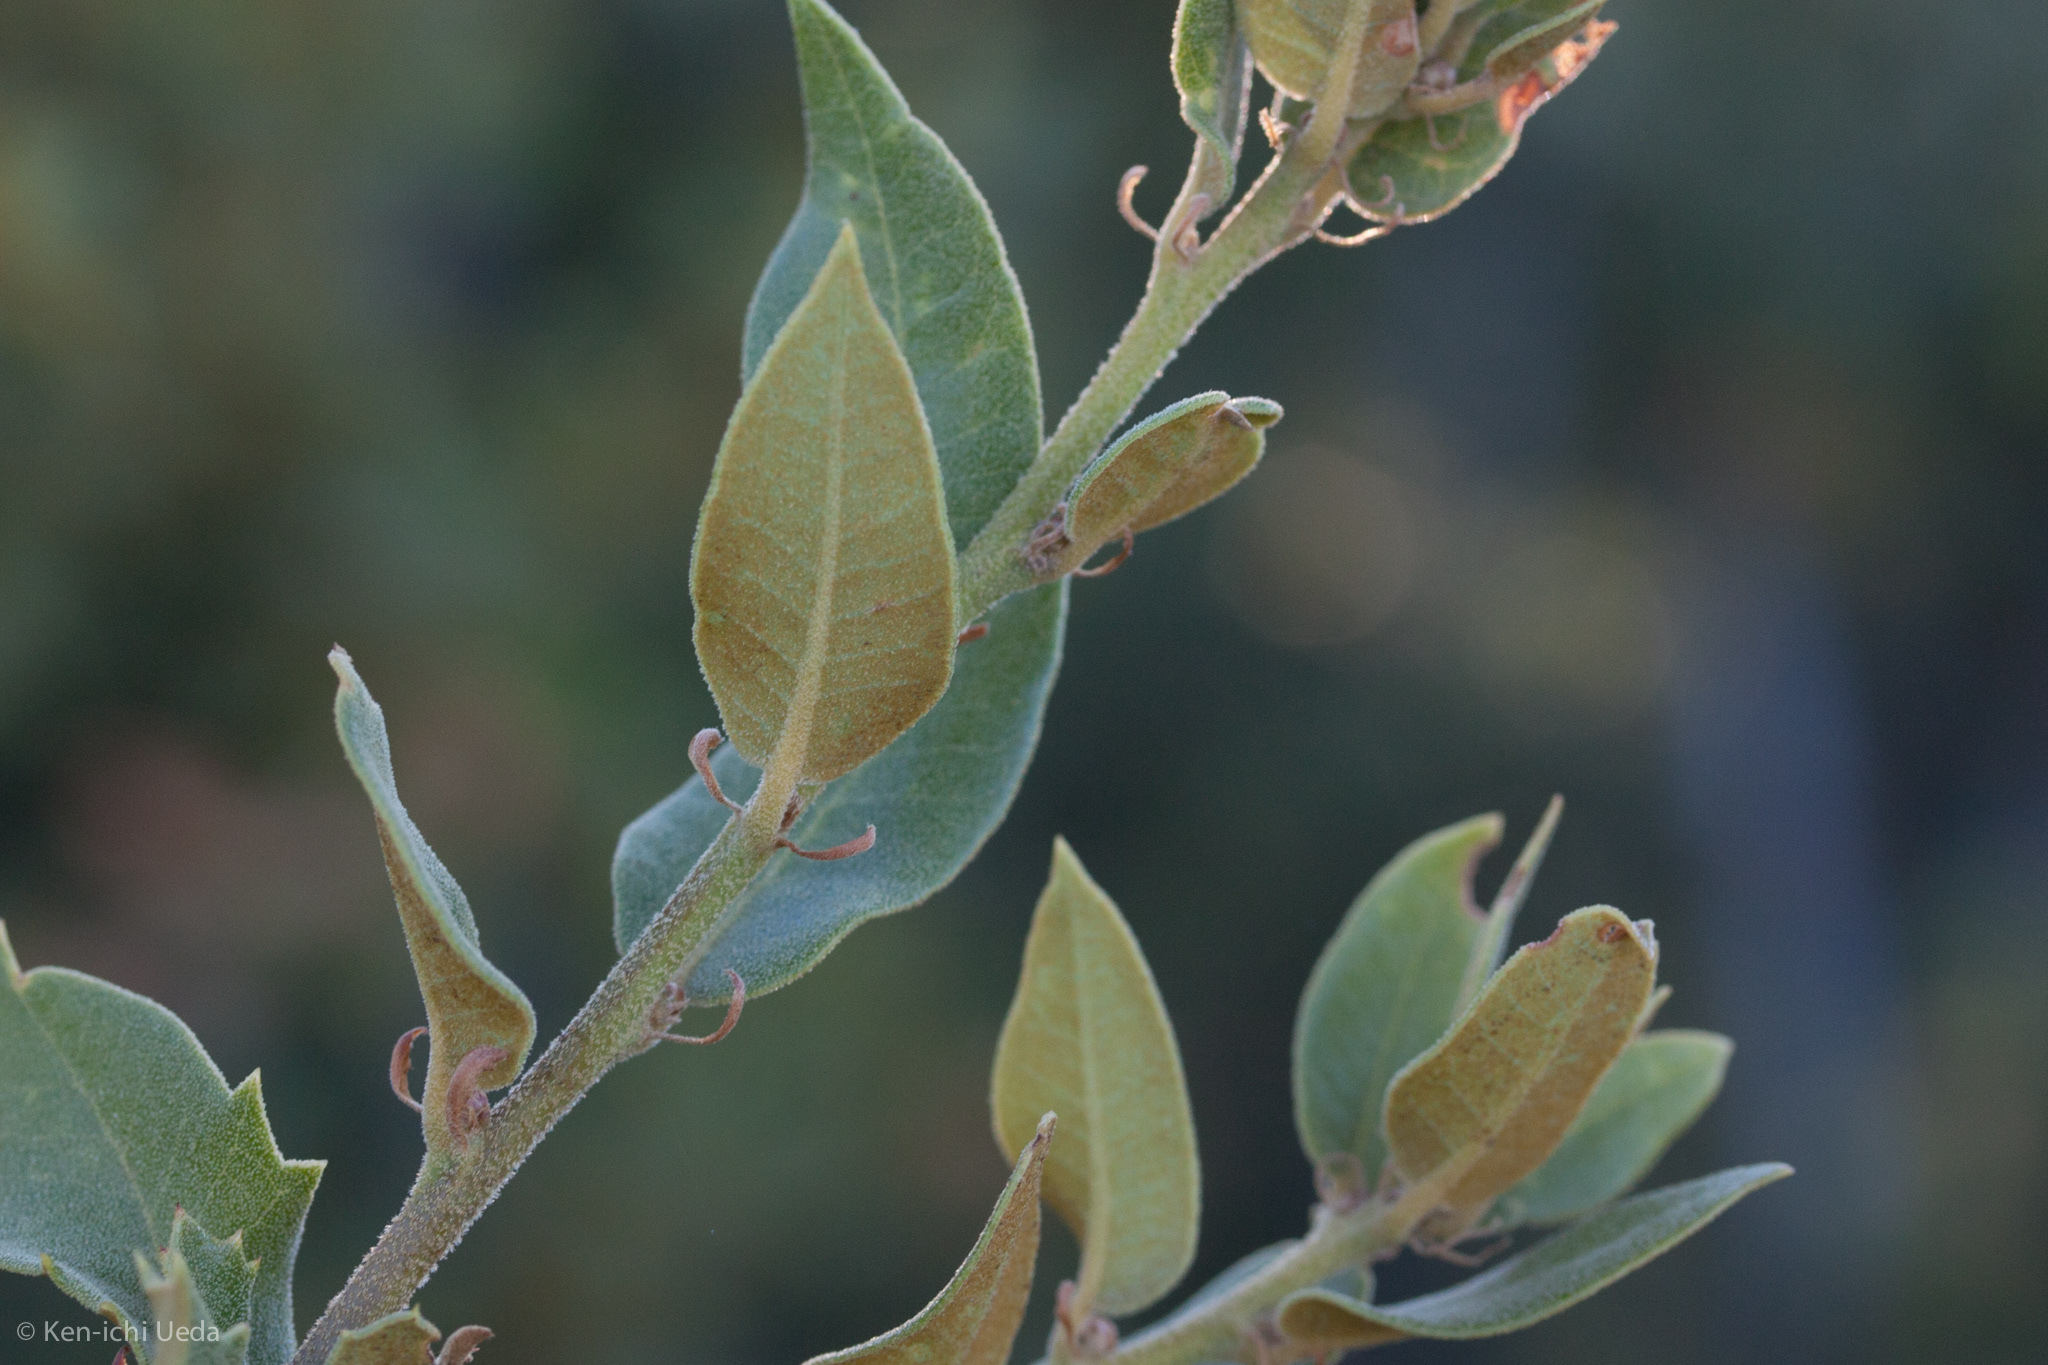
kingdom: Plantae
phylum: Tracheophyta
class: Magnoliopsida
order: Fagales
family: Fagaceae
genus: Quercus
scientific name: Quercus chrysolepis
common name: Canyon live oak
